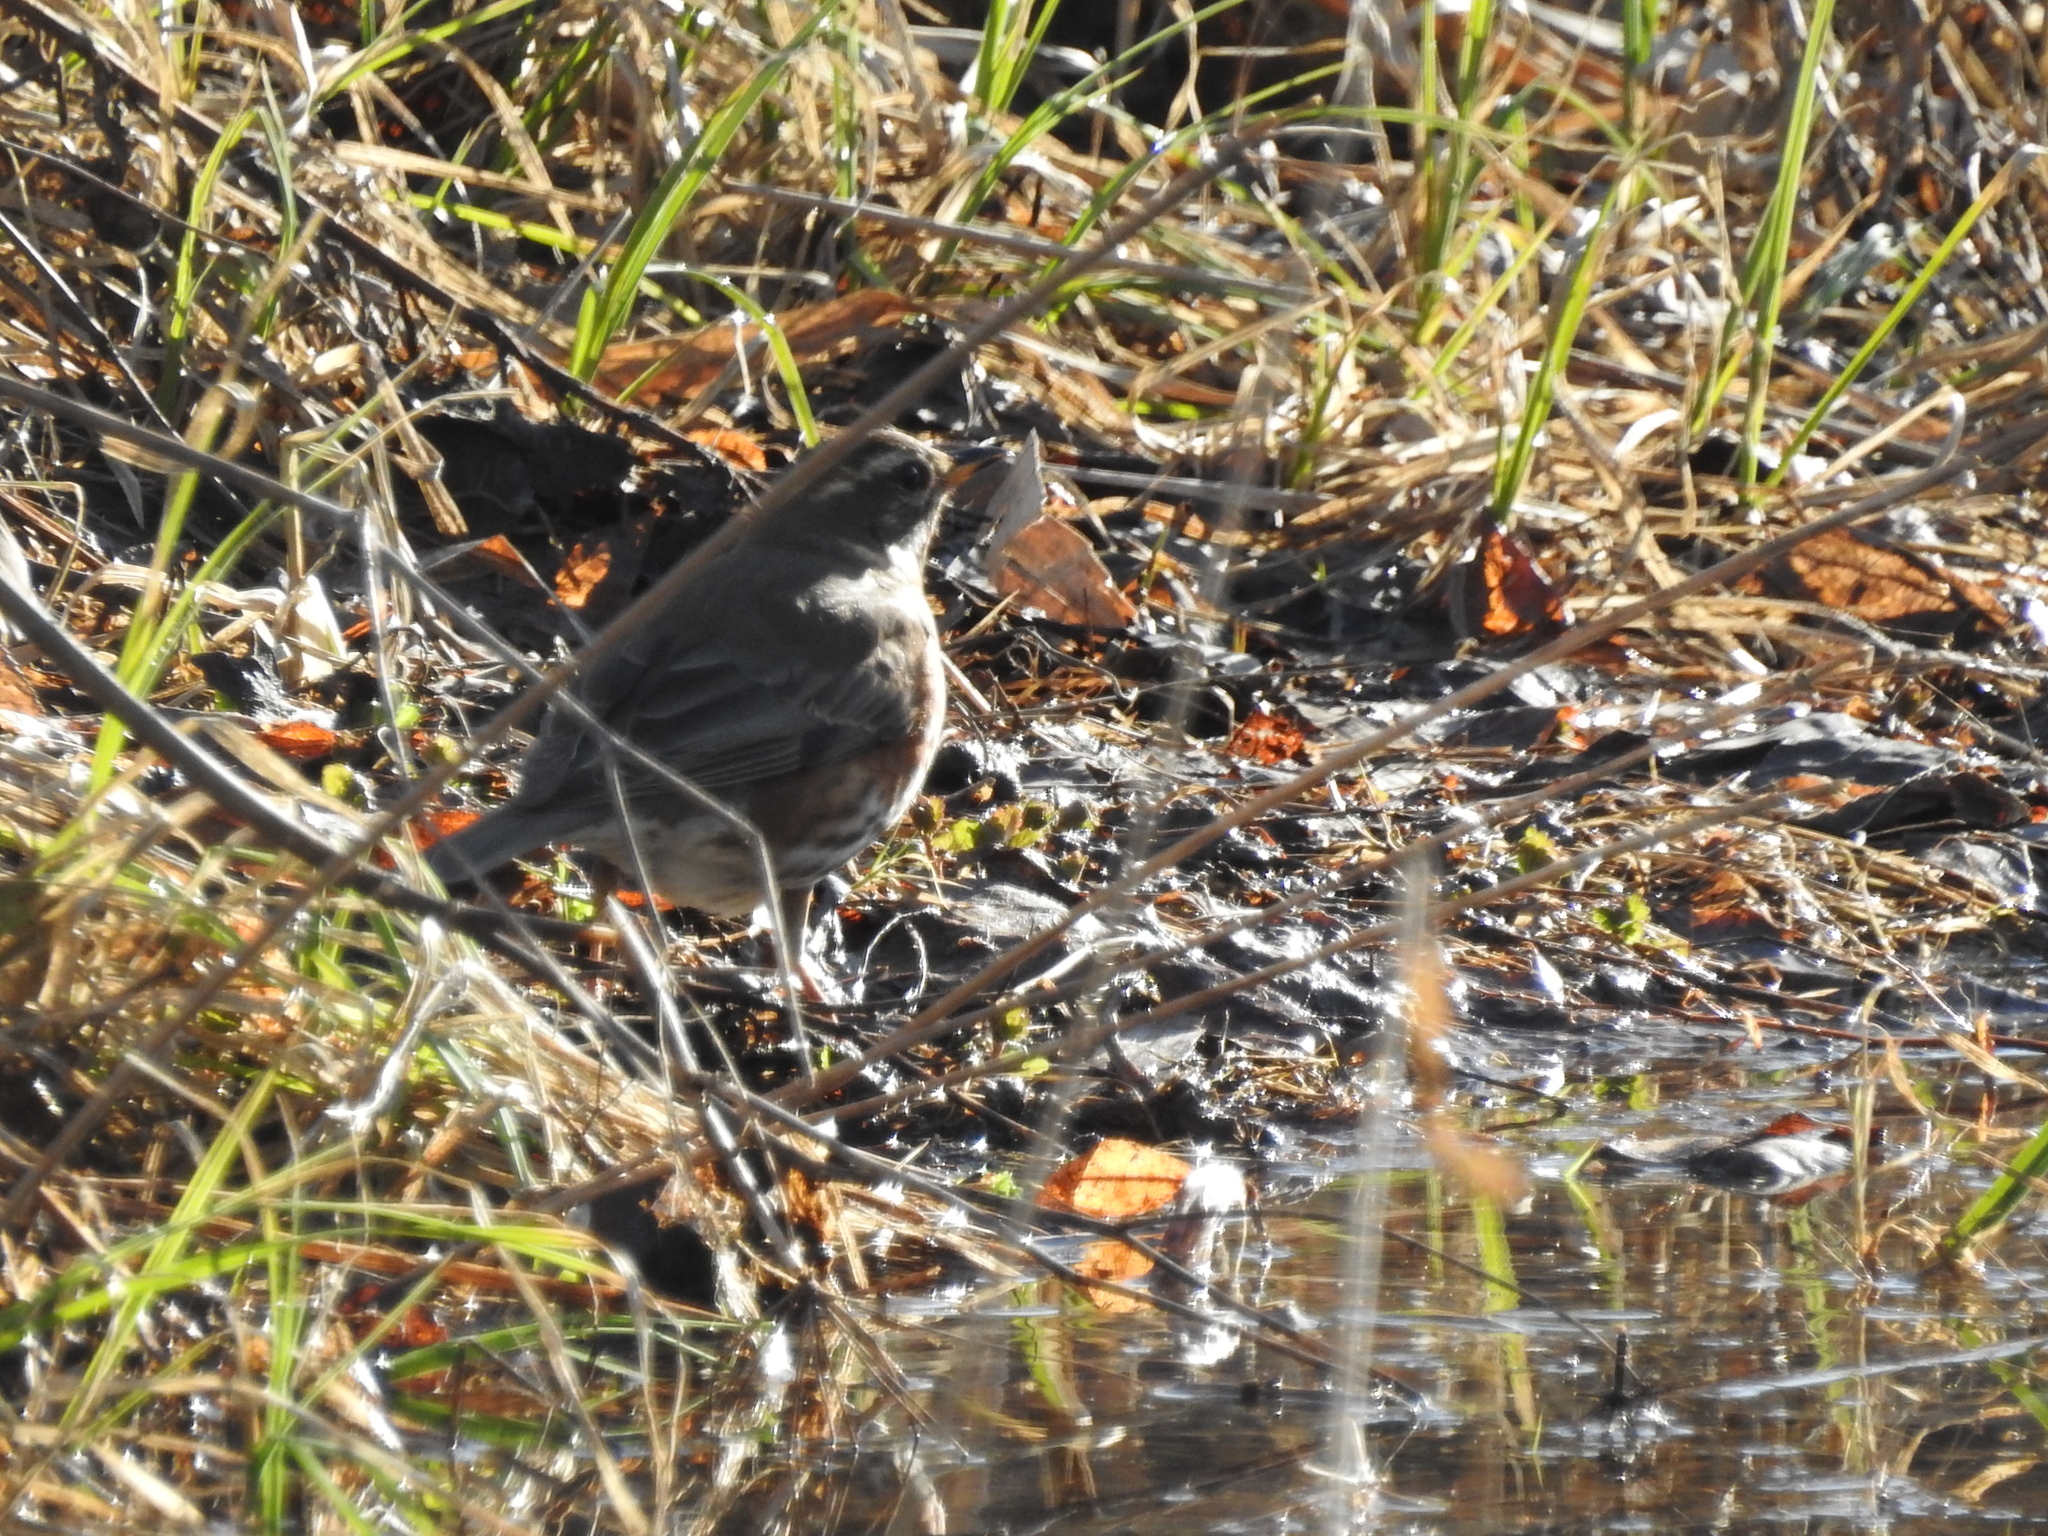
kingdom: Animalia
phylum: Chordata
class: Aves
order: Passeriformes
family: Turdidae
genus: Turdus
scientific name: Turdus iliacus
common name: Redwing
